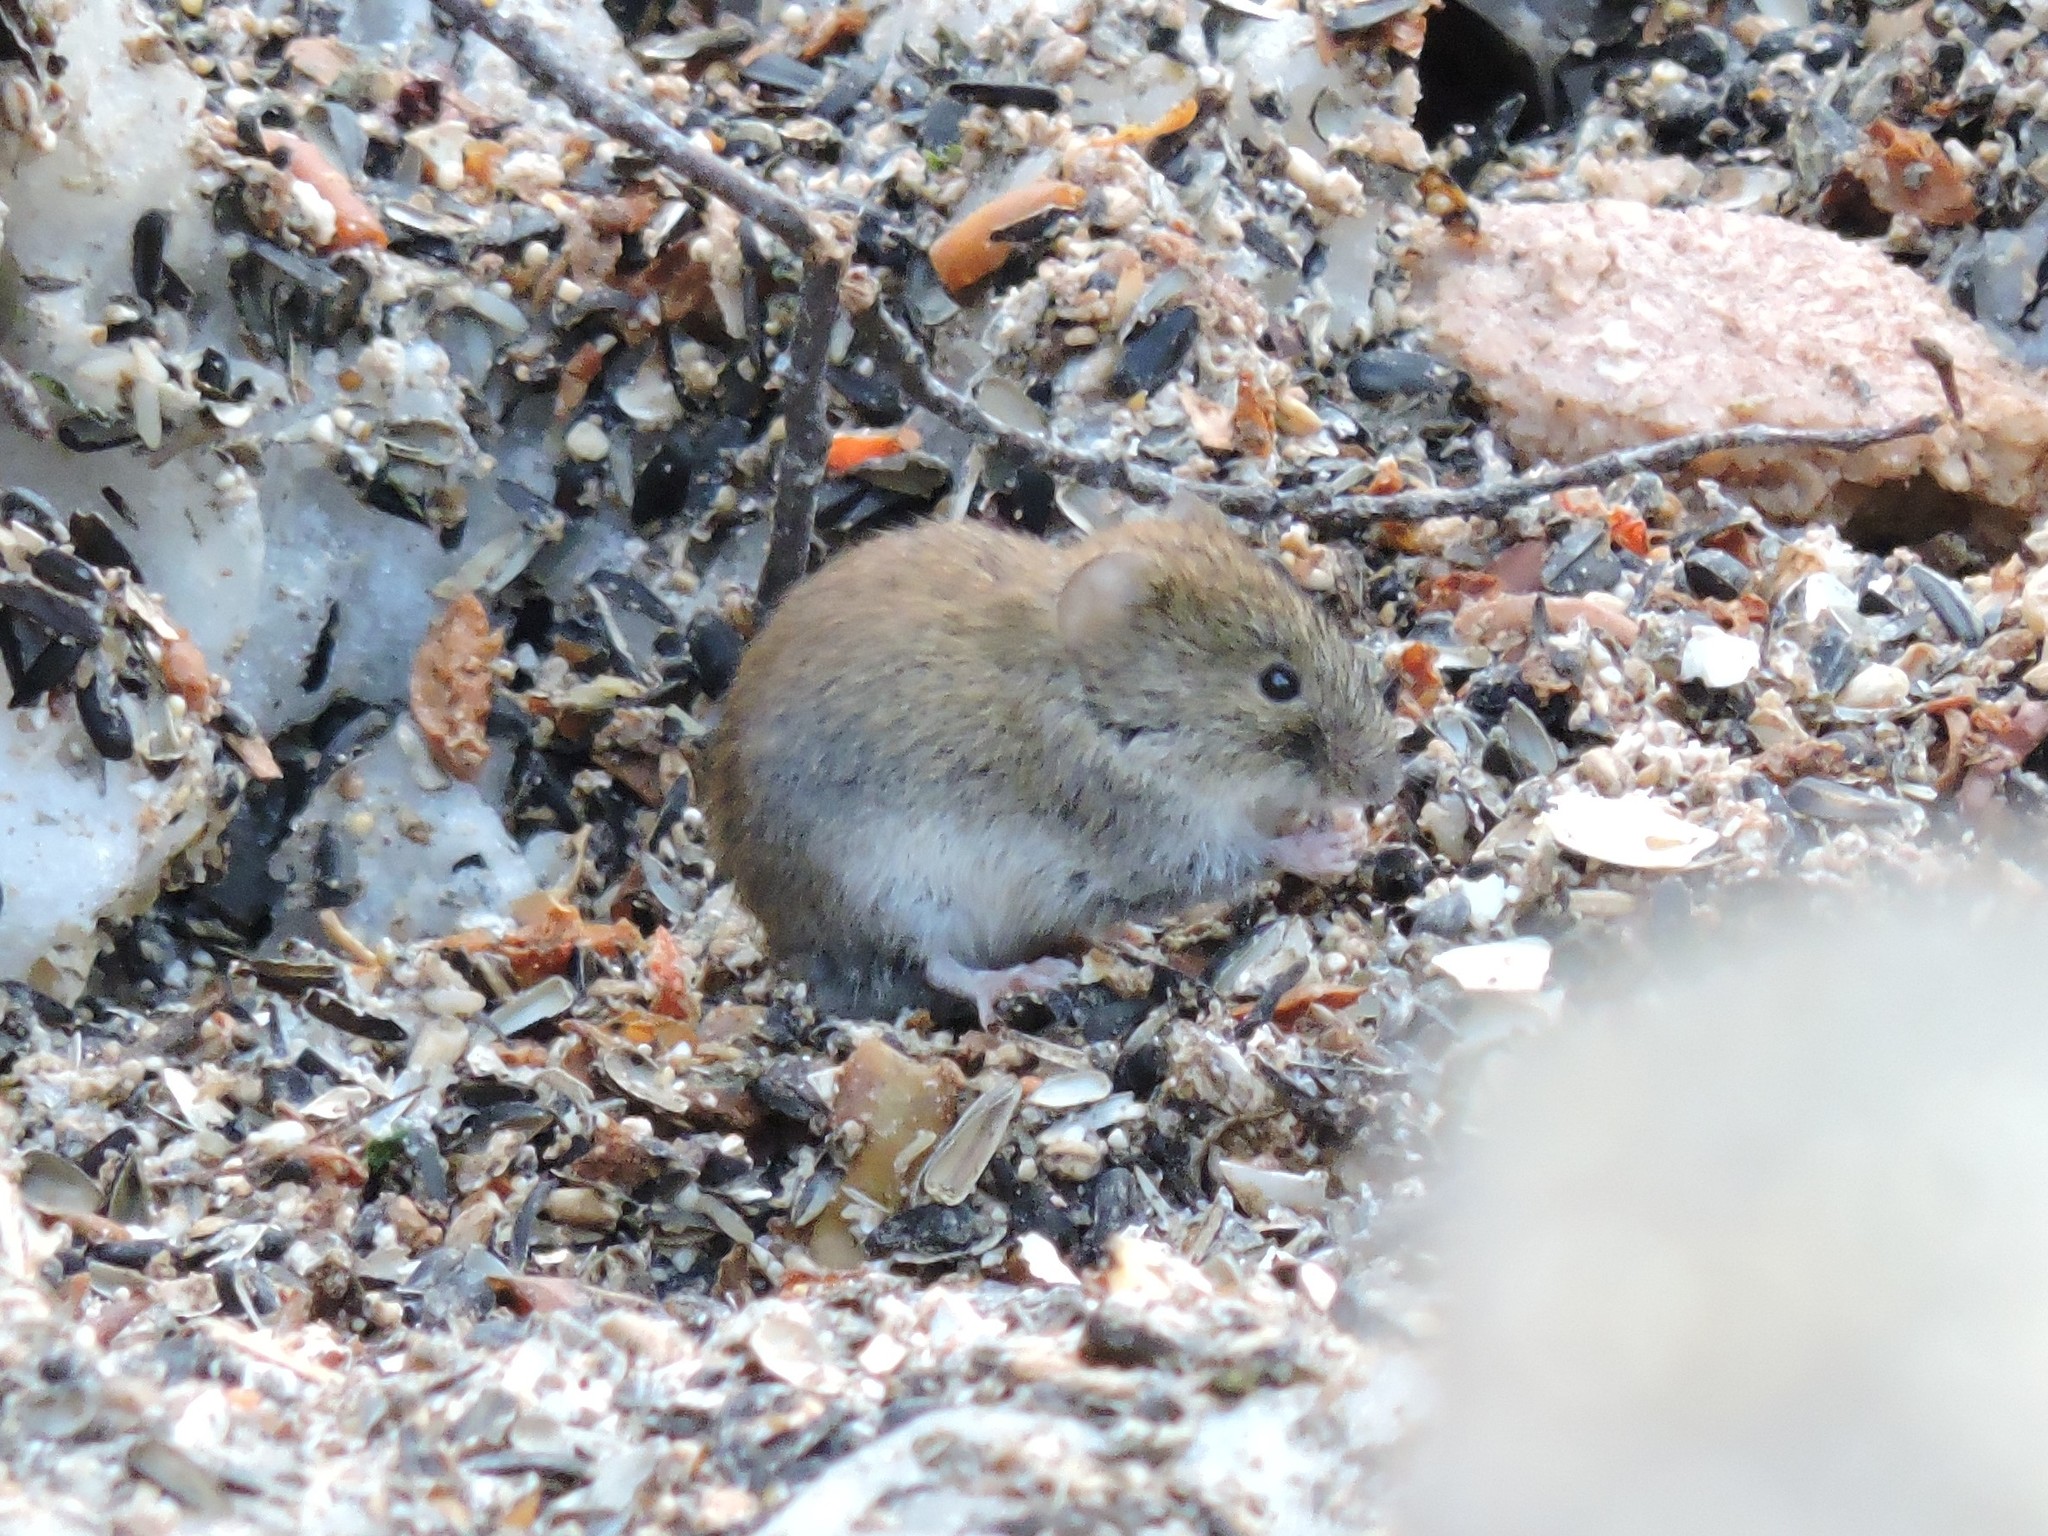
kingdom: Animalia
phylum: Chordata
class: Mammalia
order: Rodentia
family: Cricetidae
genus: Myodes
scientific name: Myodes glareolus
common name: Bank vole
